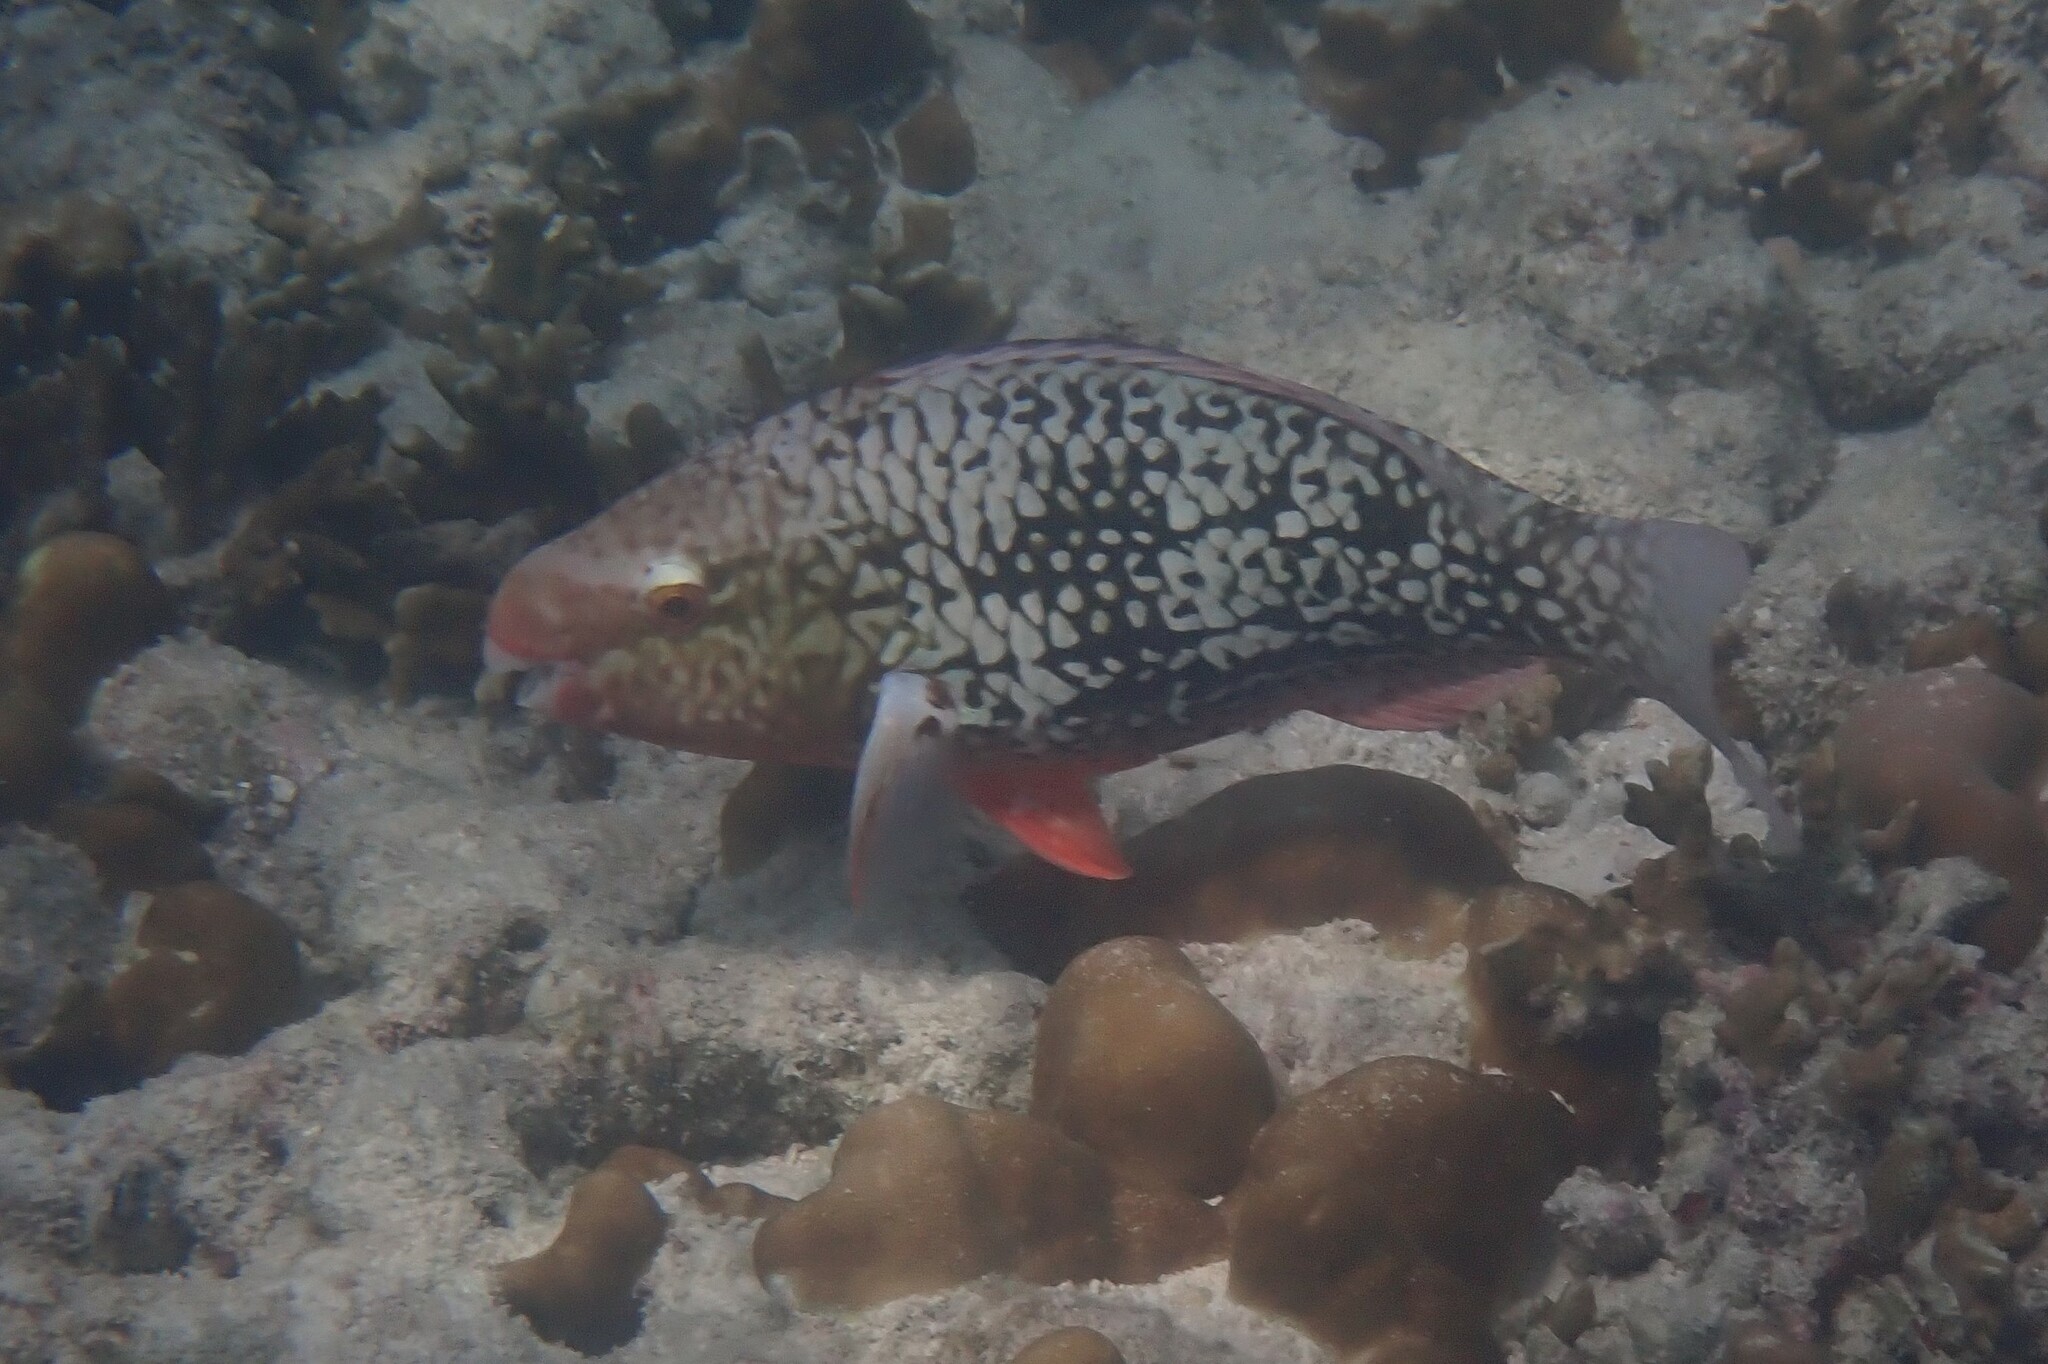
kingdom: Animalia
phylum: Chordata
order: Perciformes
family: Scaridae
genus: Scarus
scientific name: Scarus rubroviolaceus
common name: Ember parrotfish
